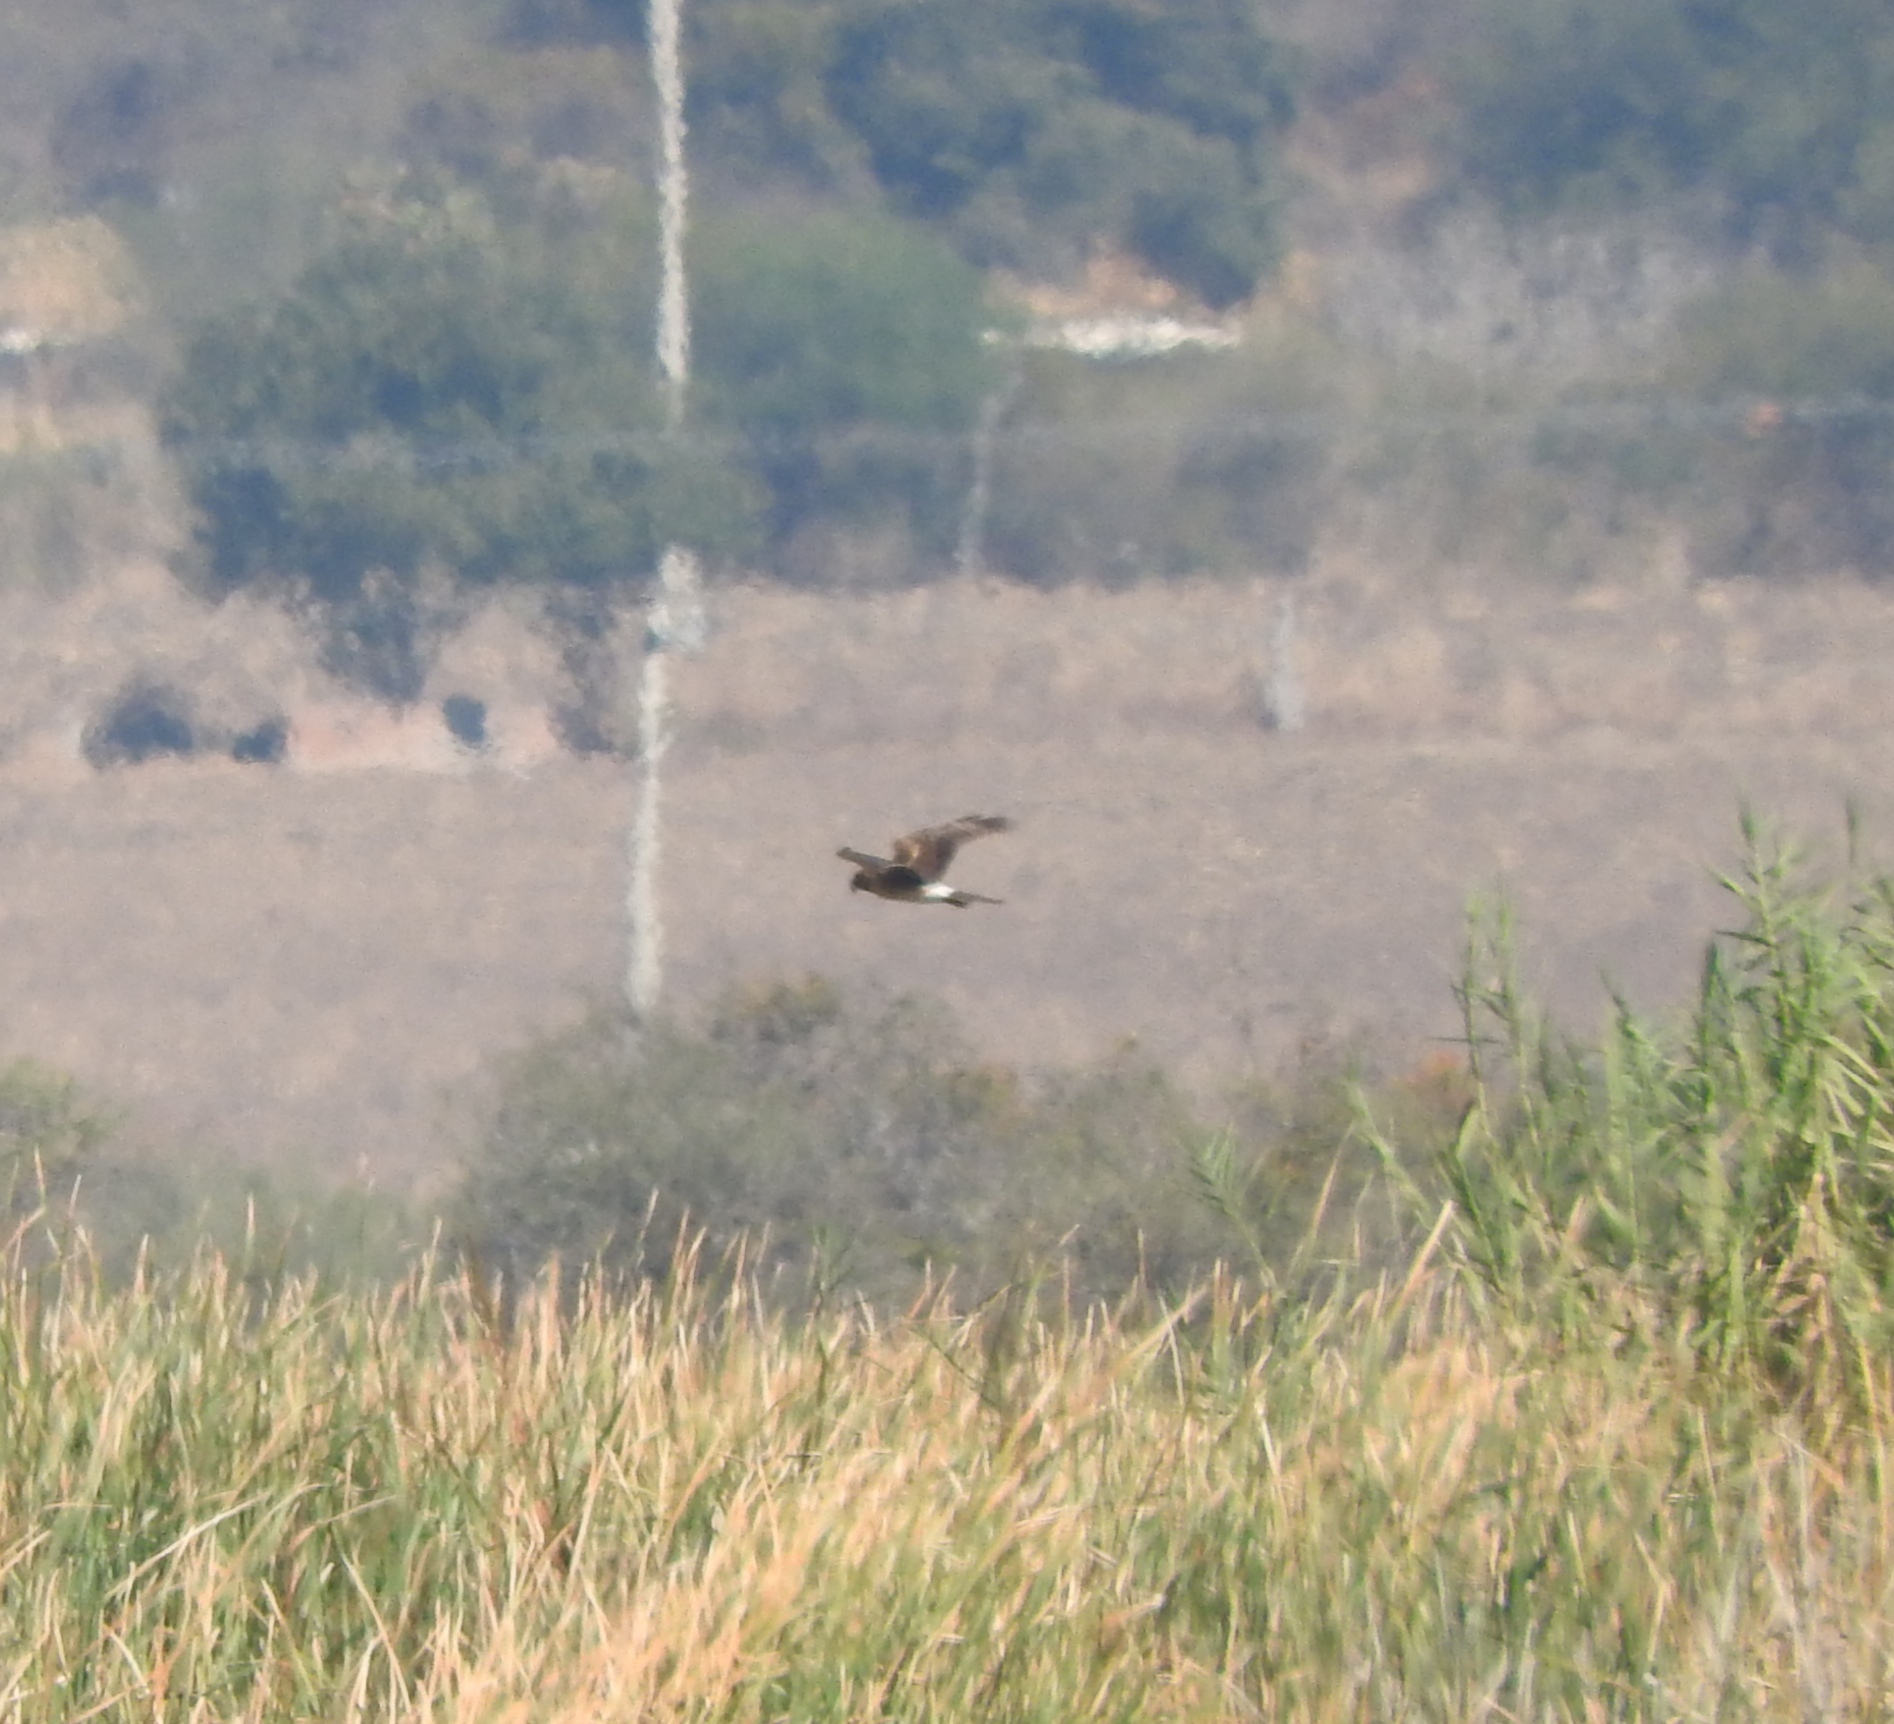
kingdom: Animalia
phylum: Chordata
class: Aves
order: Accipitriformes
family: Accipitridae
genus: Circus
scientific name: Circus cyaneus
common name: Hen harrier
